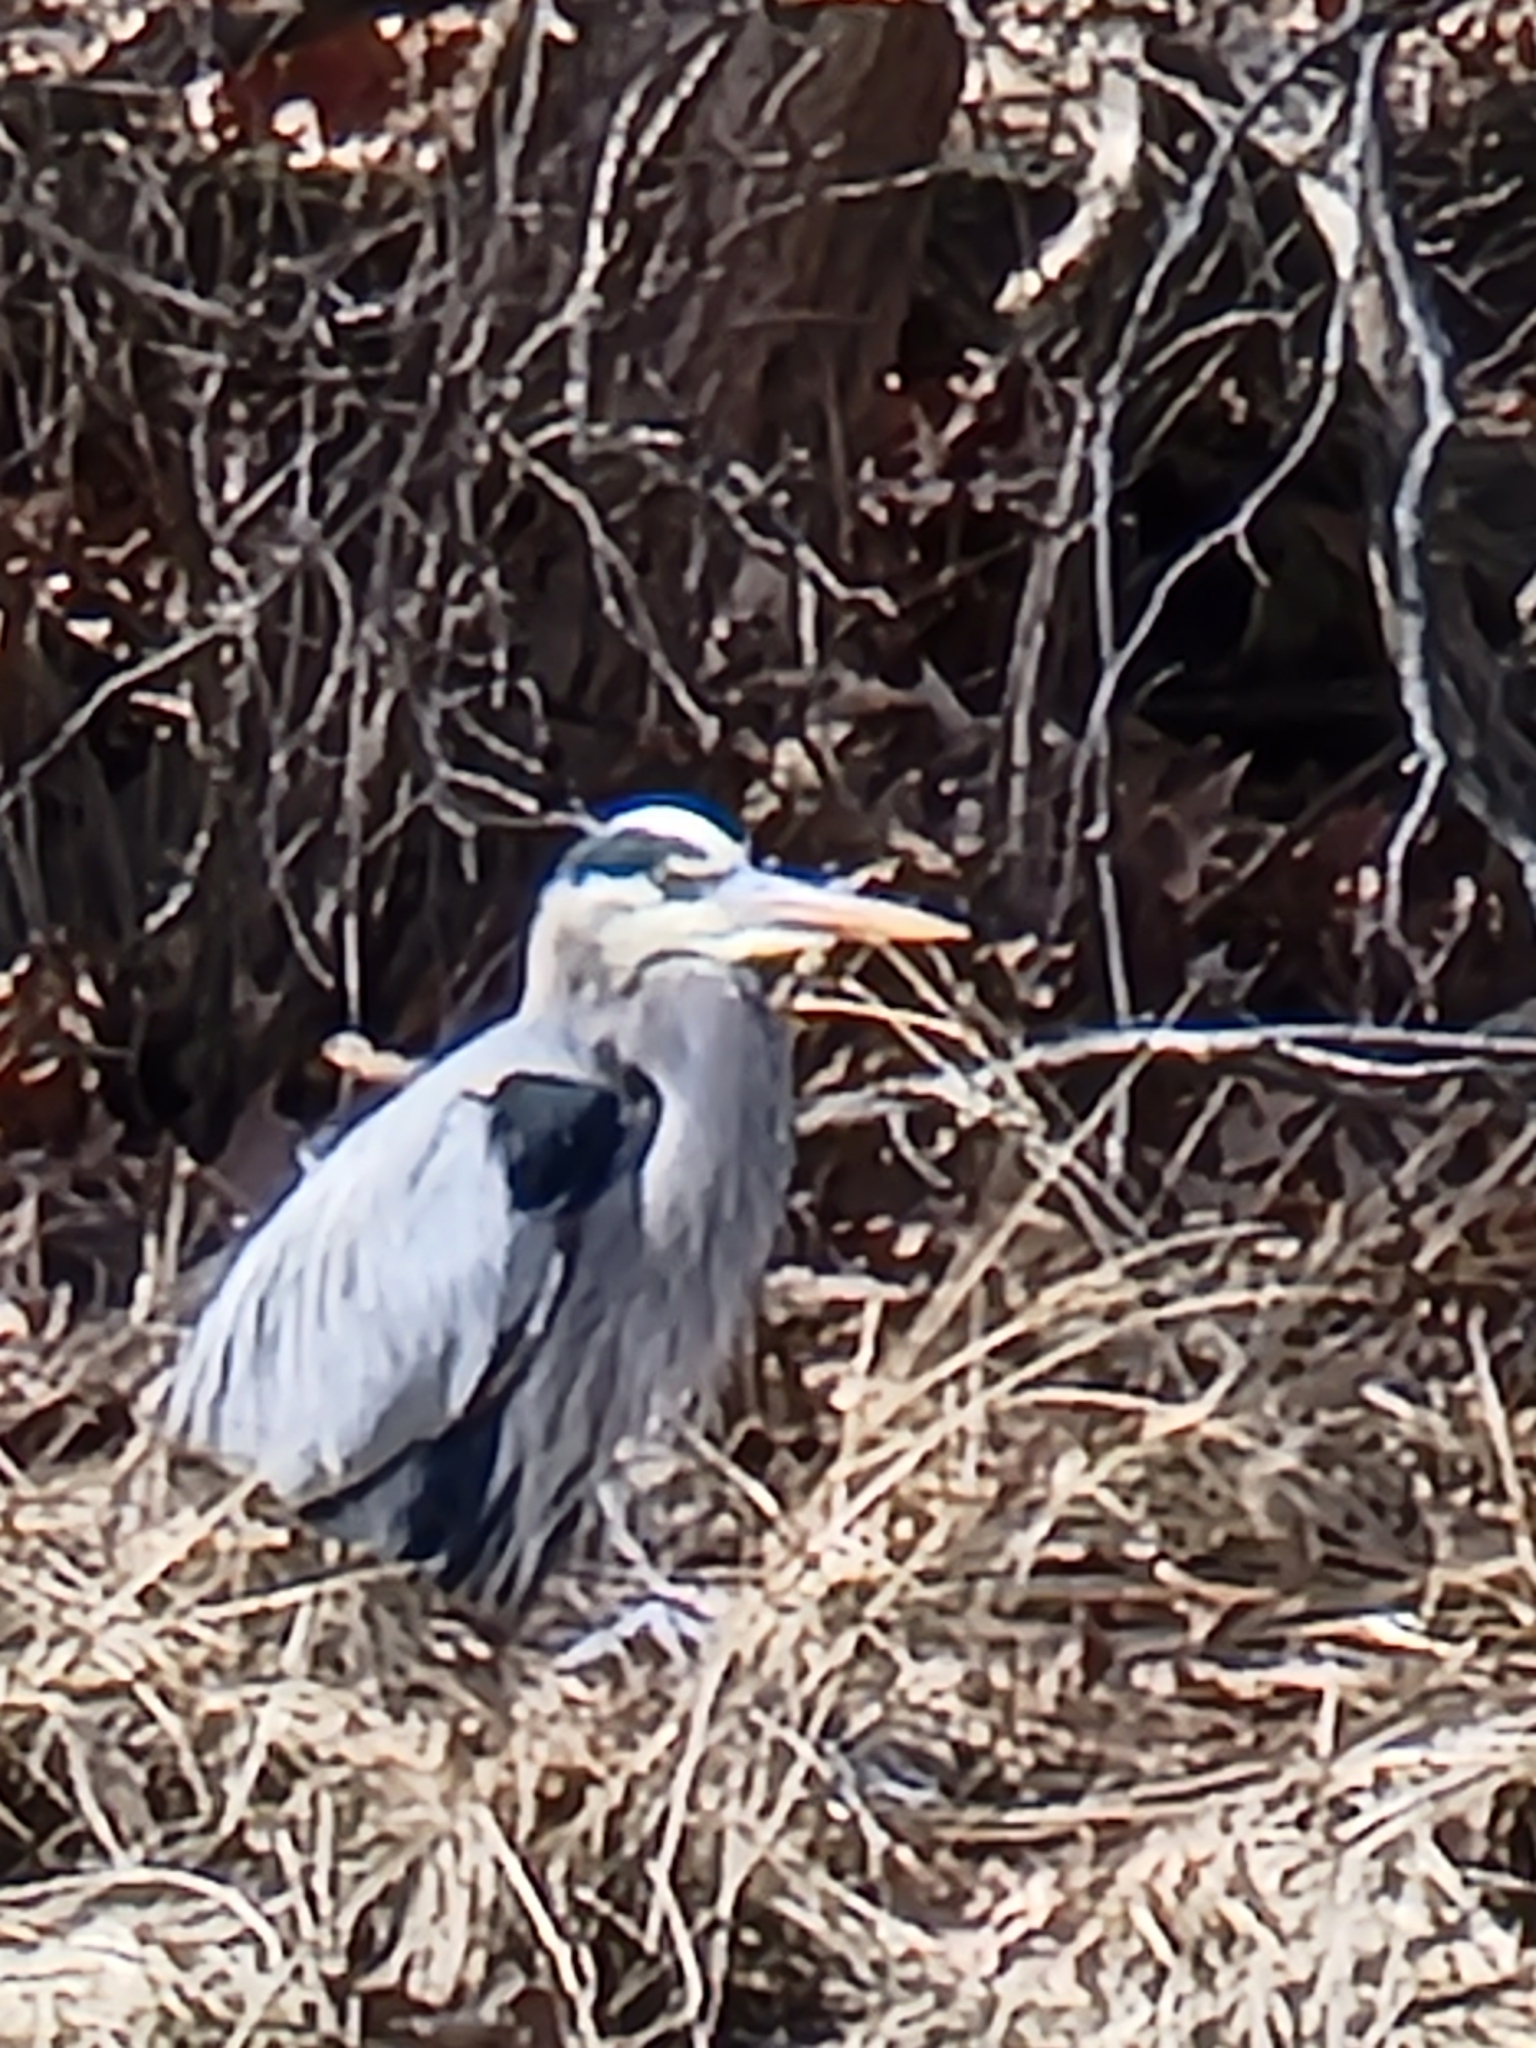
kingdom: Animalia
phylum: Chordata
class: Aves
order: Pelecaniformes
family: Ardeidae
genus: Ardea
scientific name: Ardea herodias
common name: Great blue heron
